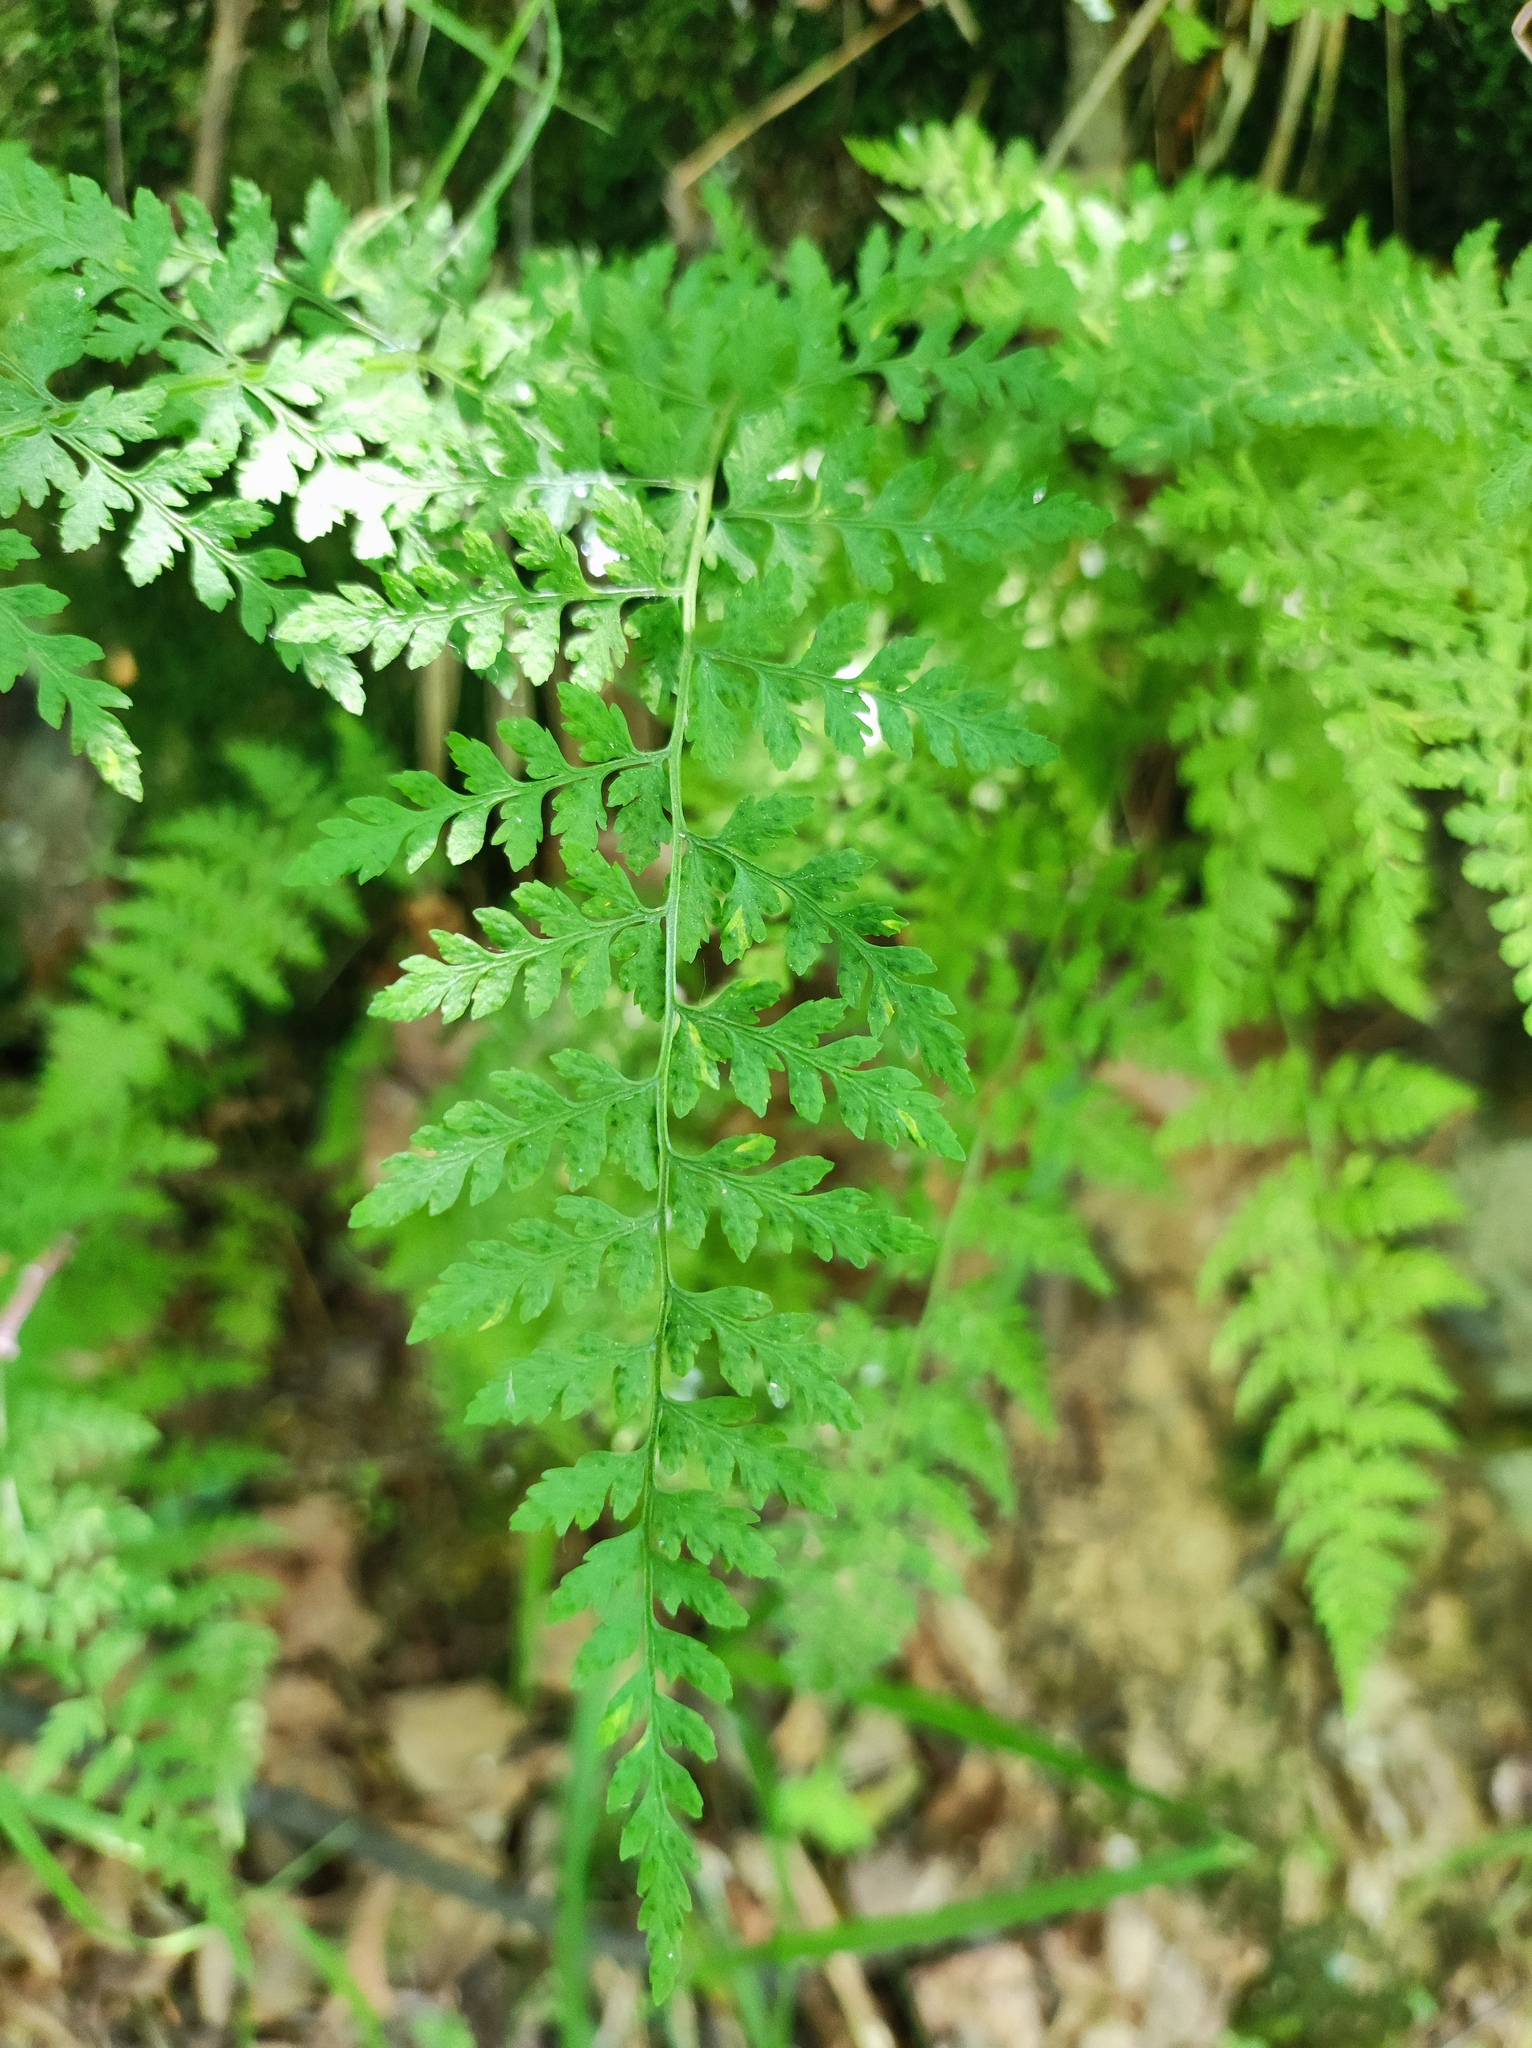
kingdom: Plantae
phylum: Tracheophyta
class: Polypodiopsida
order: Polypodiales
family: Cystopteridaceae
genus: Cystopteris
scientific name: Cystopteris fragilis
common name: Brittle bladder fern
